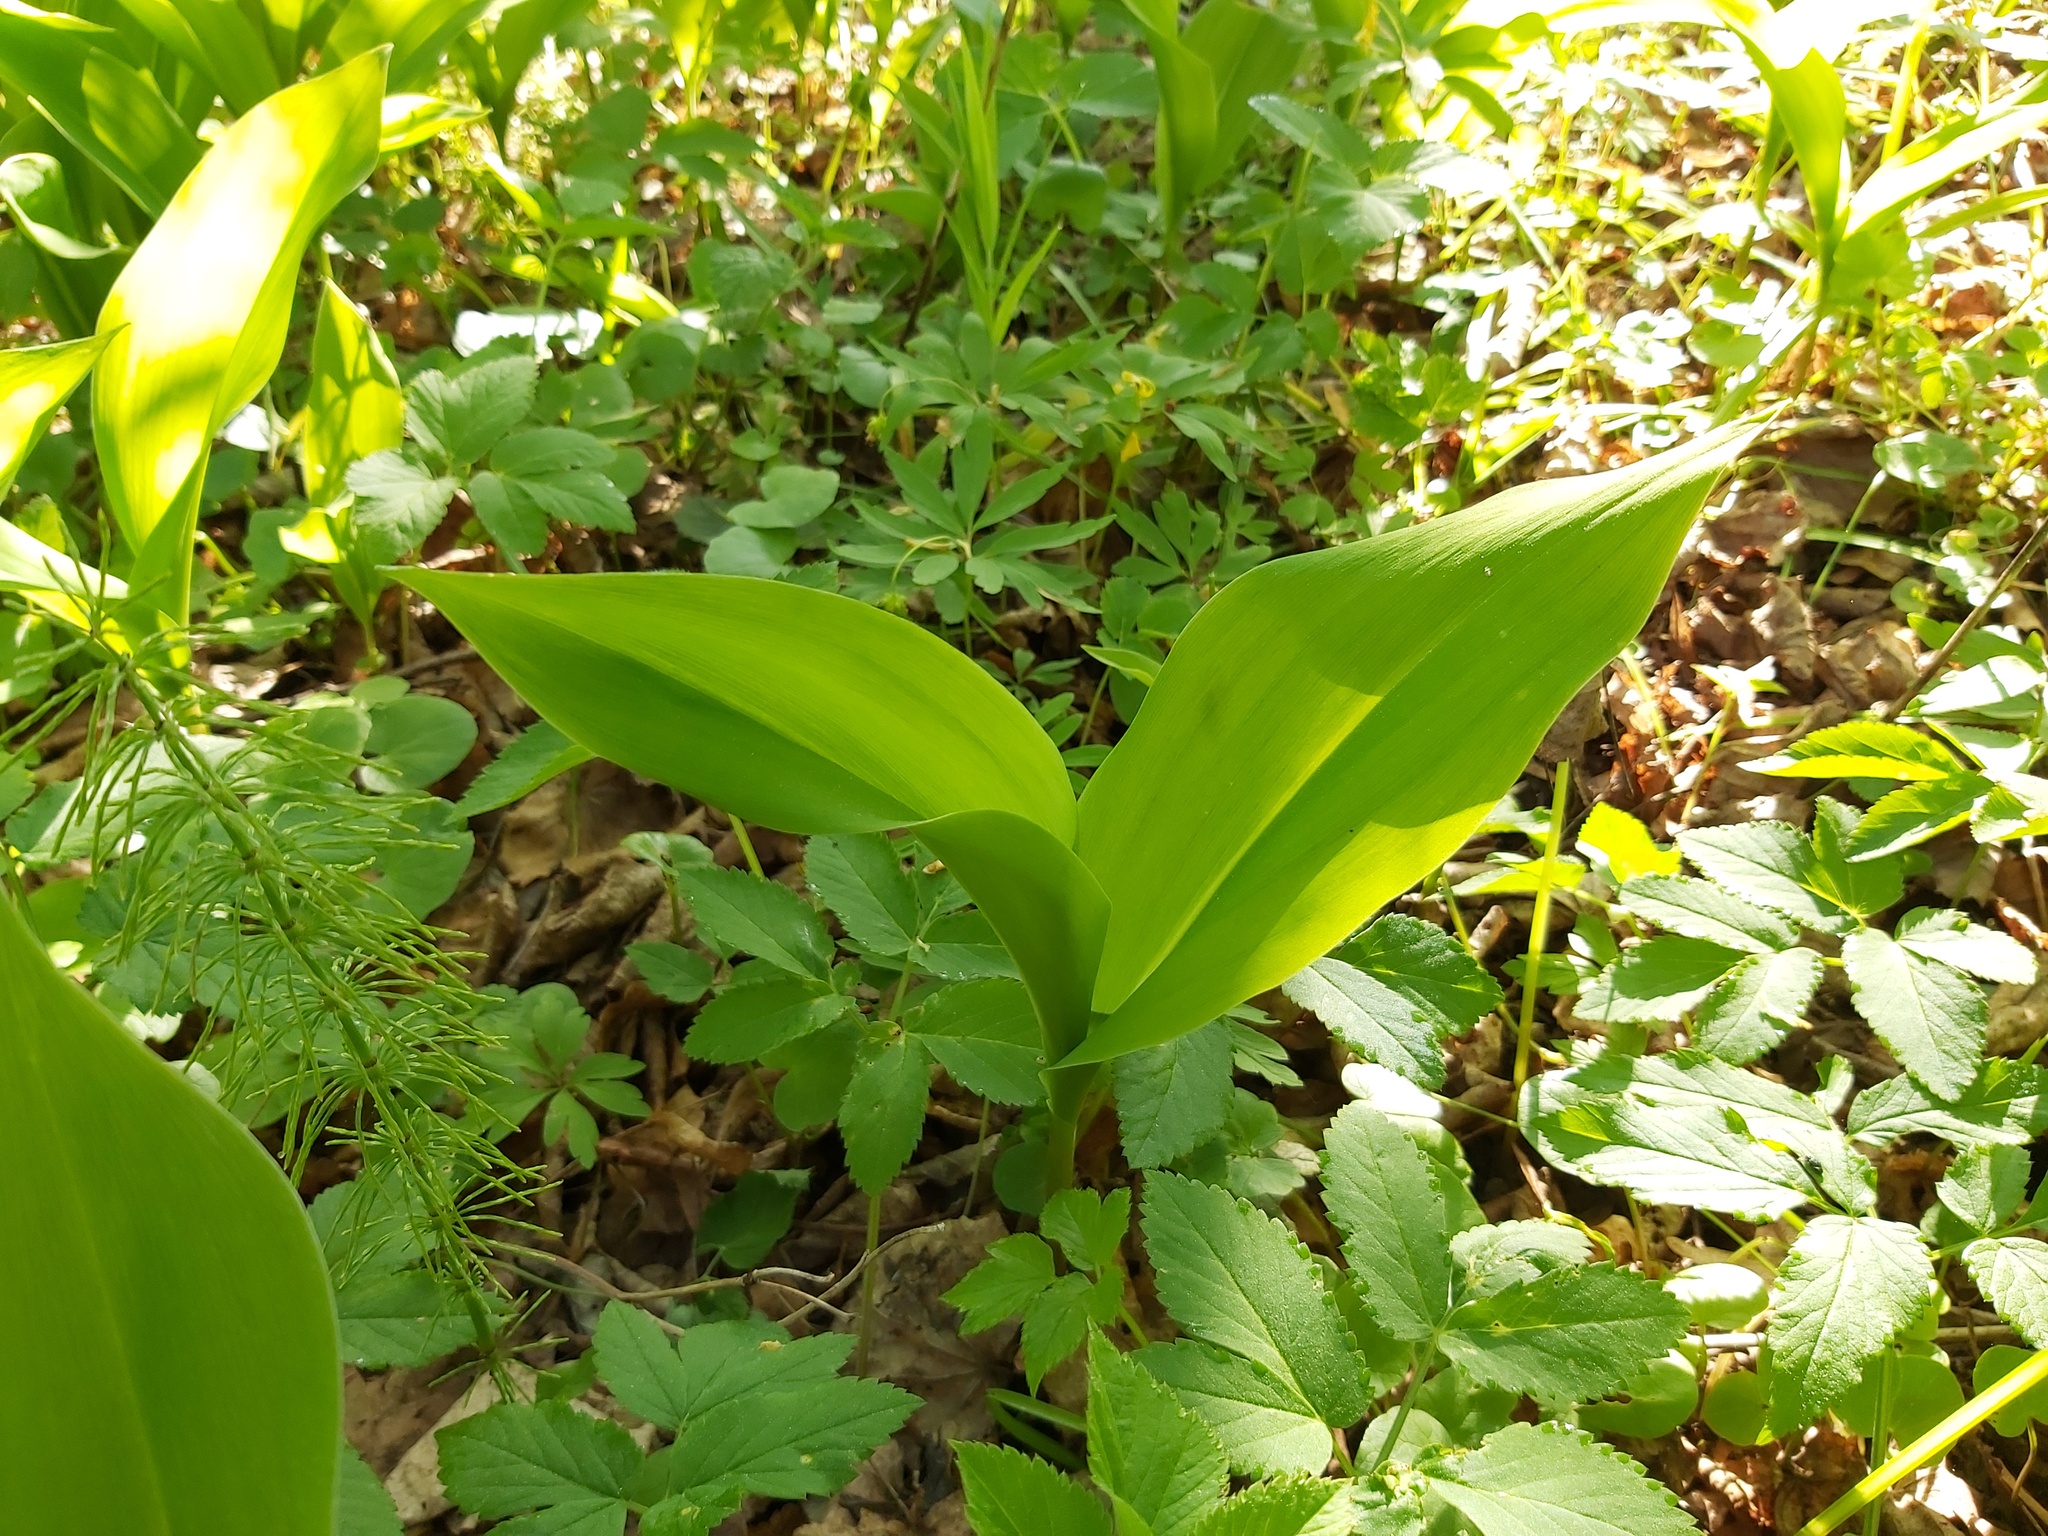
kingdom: Plantae
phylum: Tracheophyta
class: Liliopsida
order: Asparagales
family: Asparagaceae
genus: Convallaria
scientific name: Convallaria majalis
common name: Lily-of-the-valley
